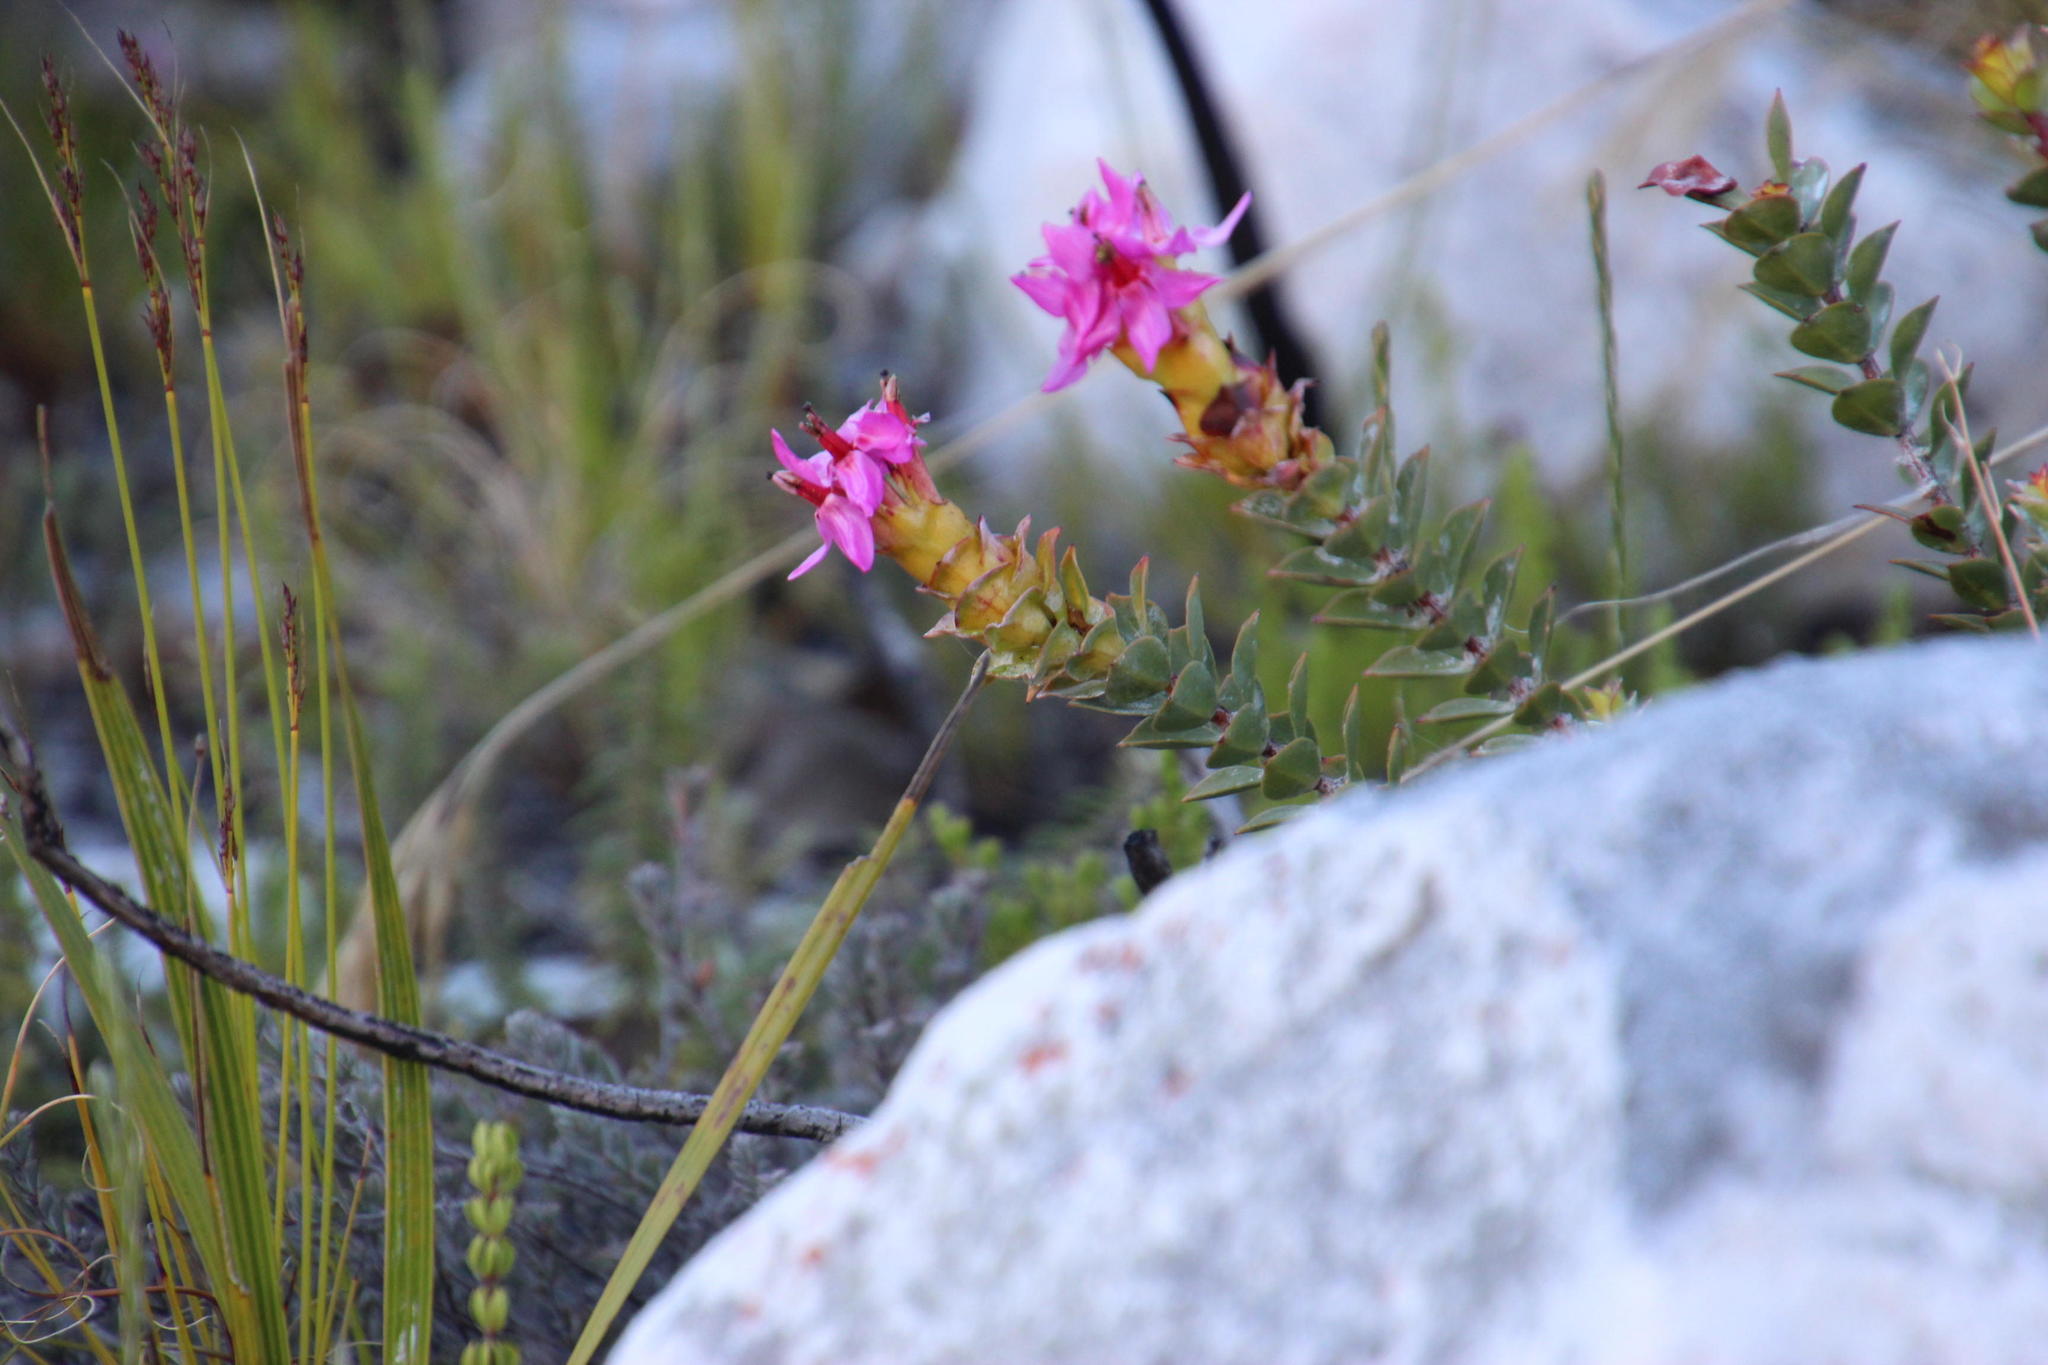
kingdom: Plantae
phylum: Tracheophyta
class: Magnoliopsida
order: Myrtales
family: Penaeaceae
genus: Saltera
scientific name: Saltera sarcocolla
